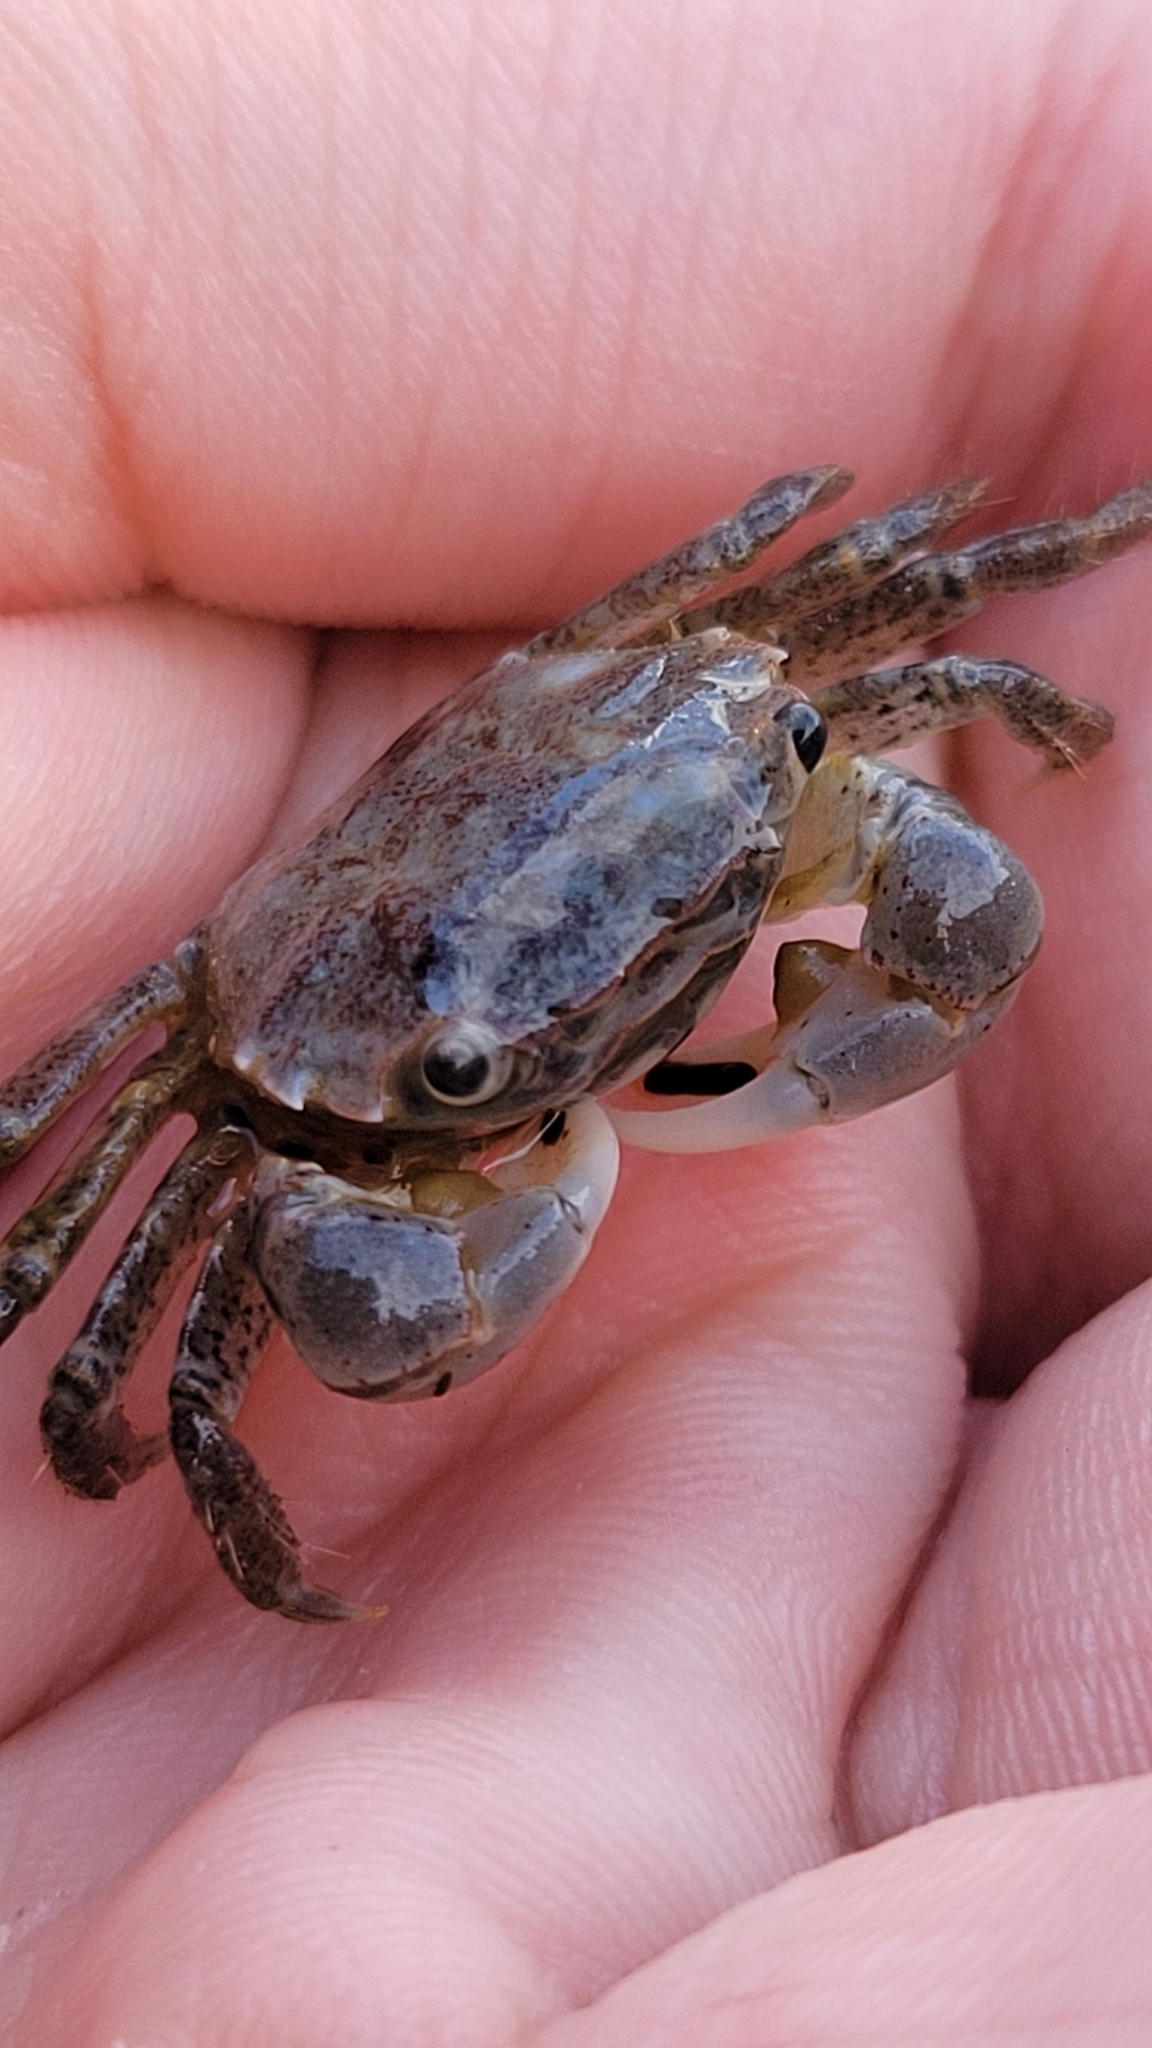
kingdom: Animalia
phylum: Arthropoda
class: Malacostraca
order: Decapoda
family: Varunidae
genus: Hemigrapsus
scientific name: Hemigrapsus oregonensis
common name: Yellow shore crab
